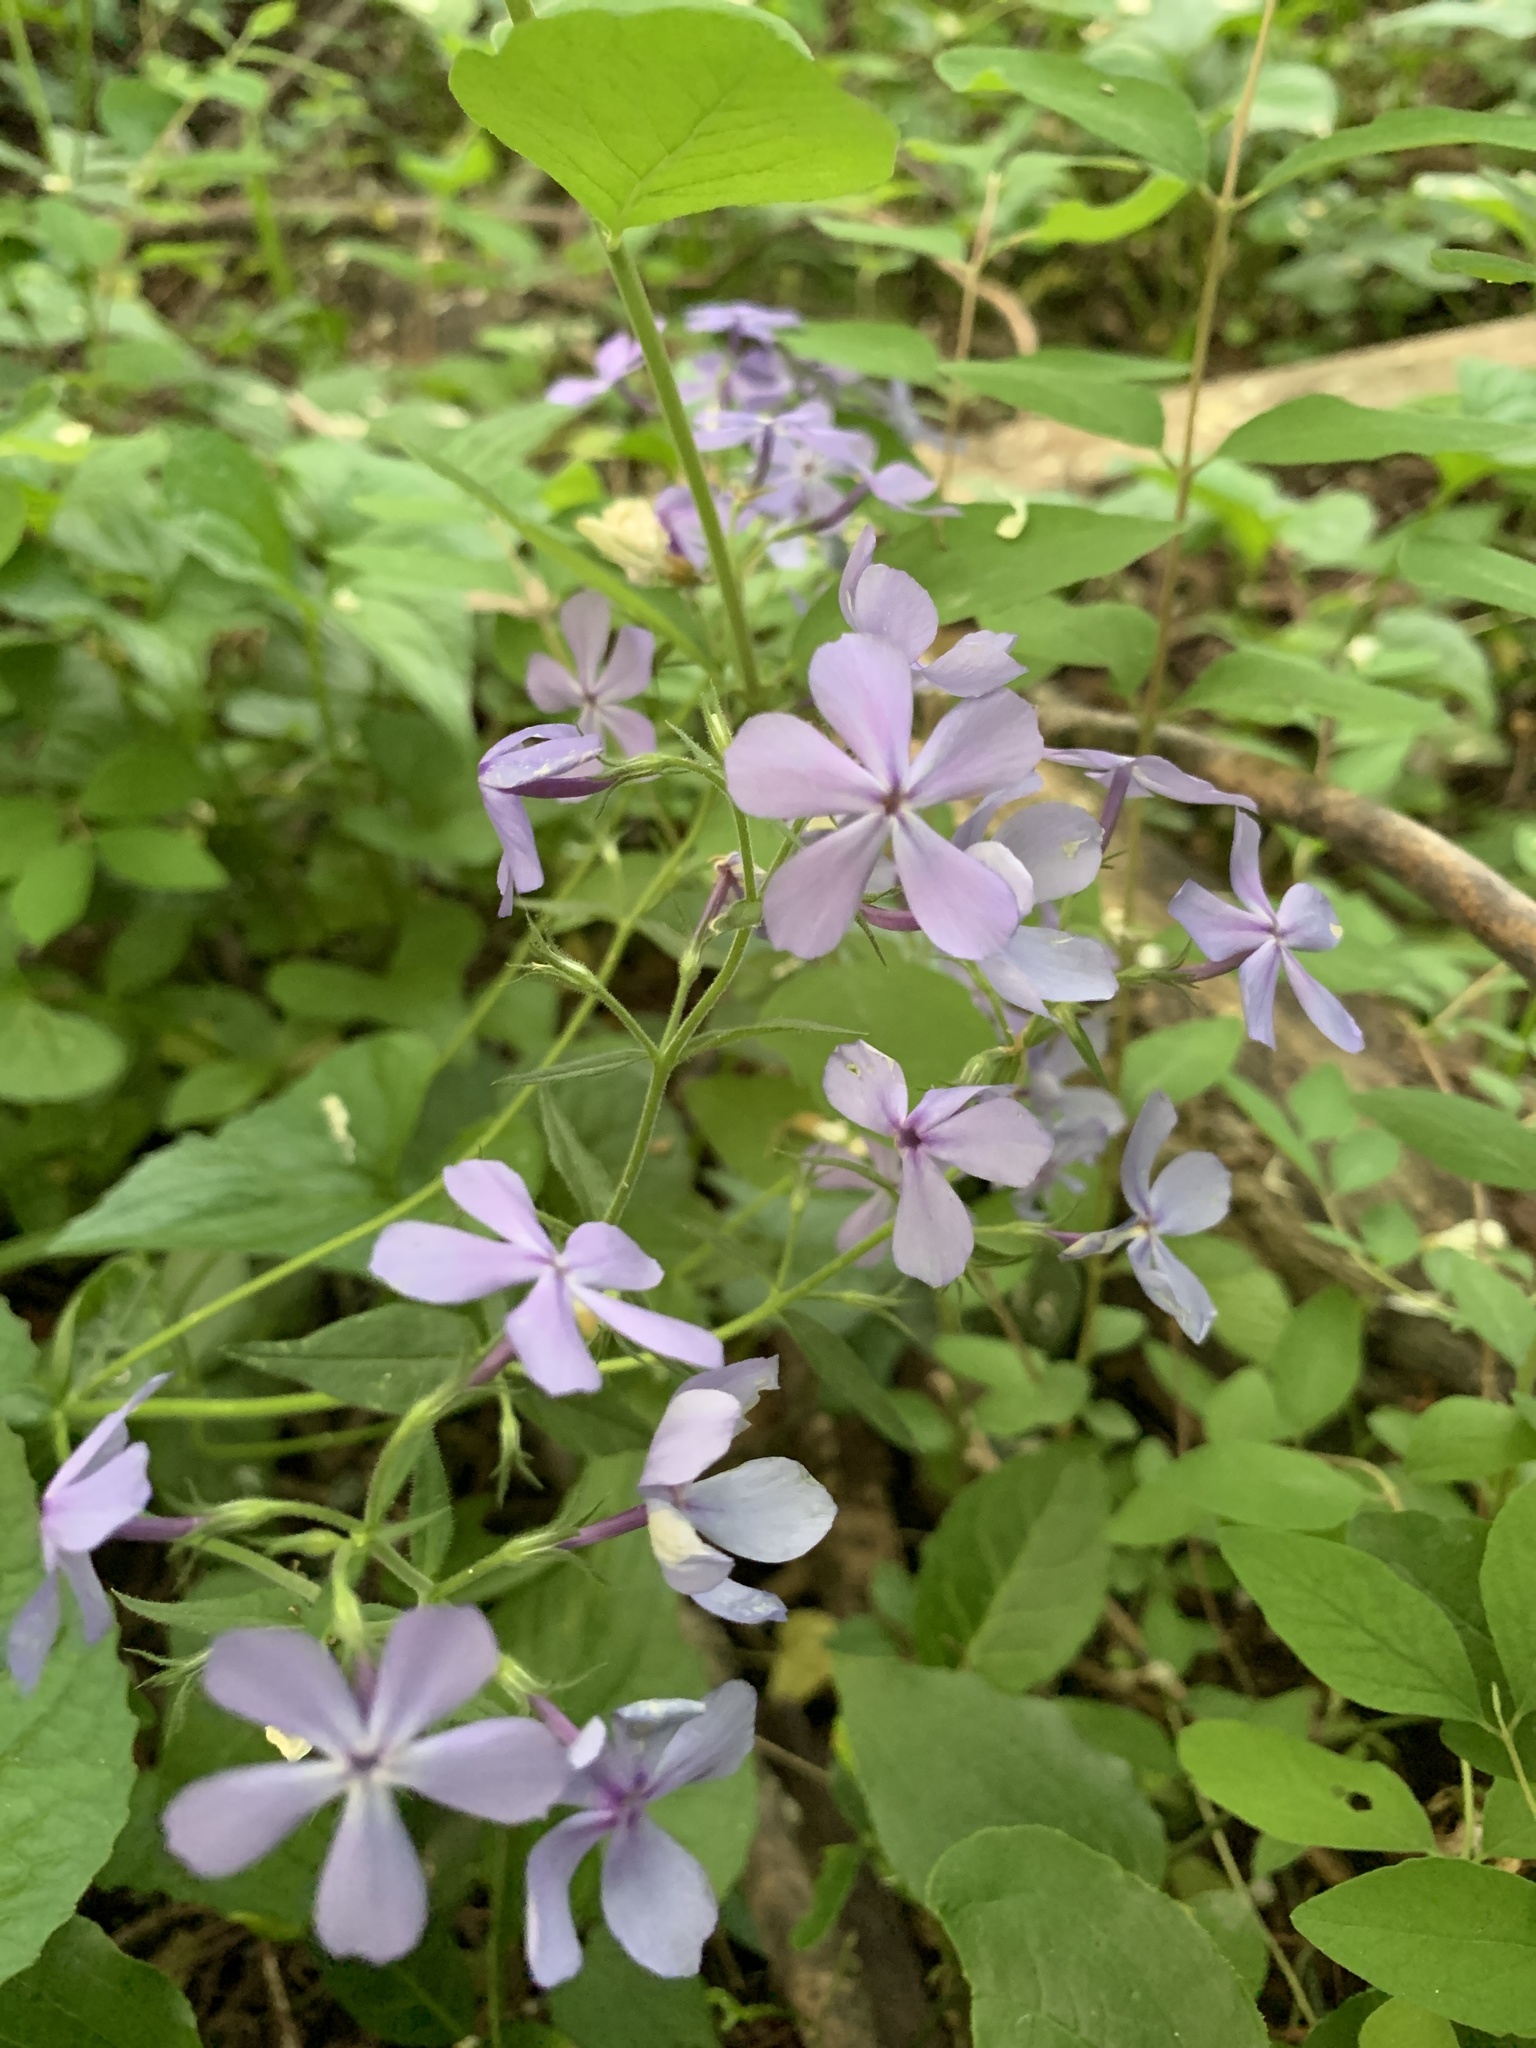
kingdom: Plantae
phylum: Tracheophyta
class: Magnoliopsida
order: Ericales
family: Polemoniaceae
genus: Phlox
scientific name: Phlox divaricata
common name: Blue phlox
